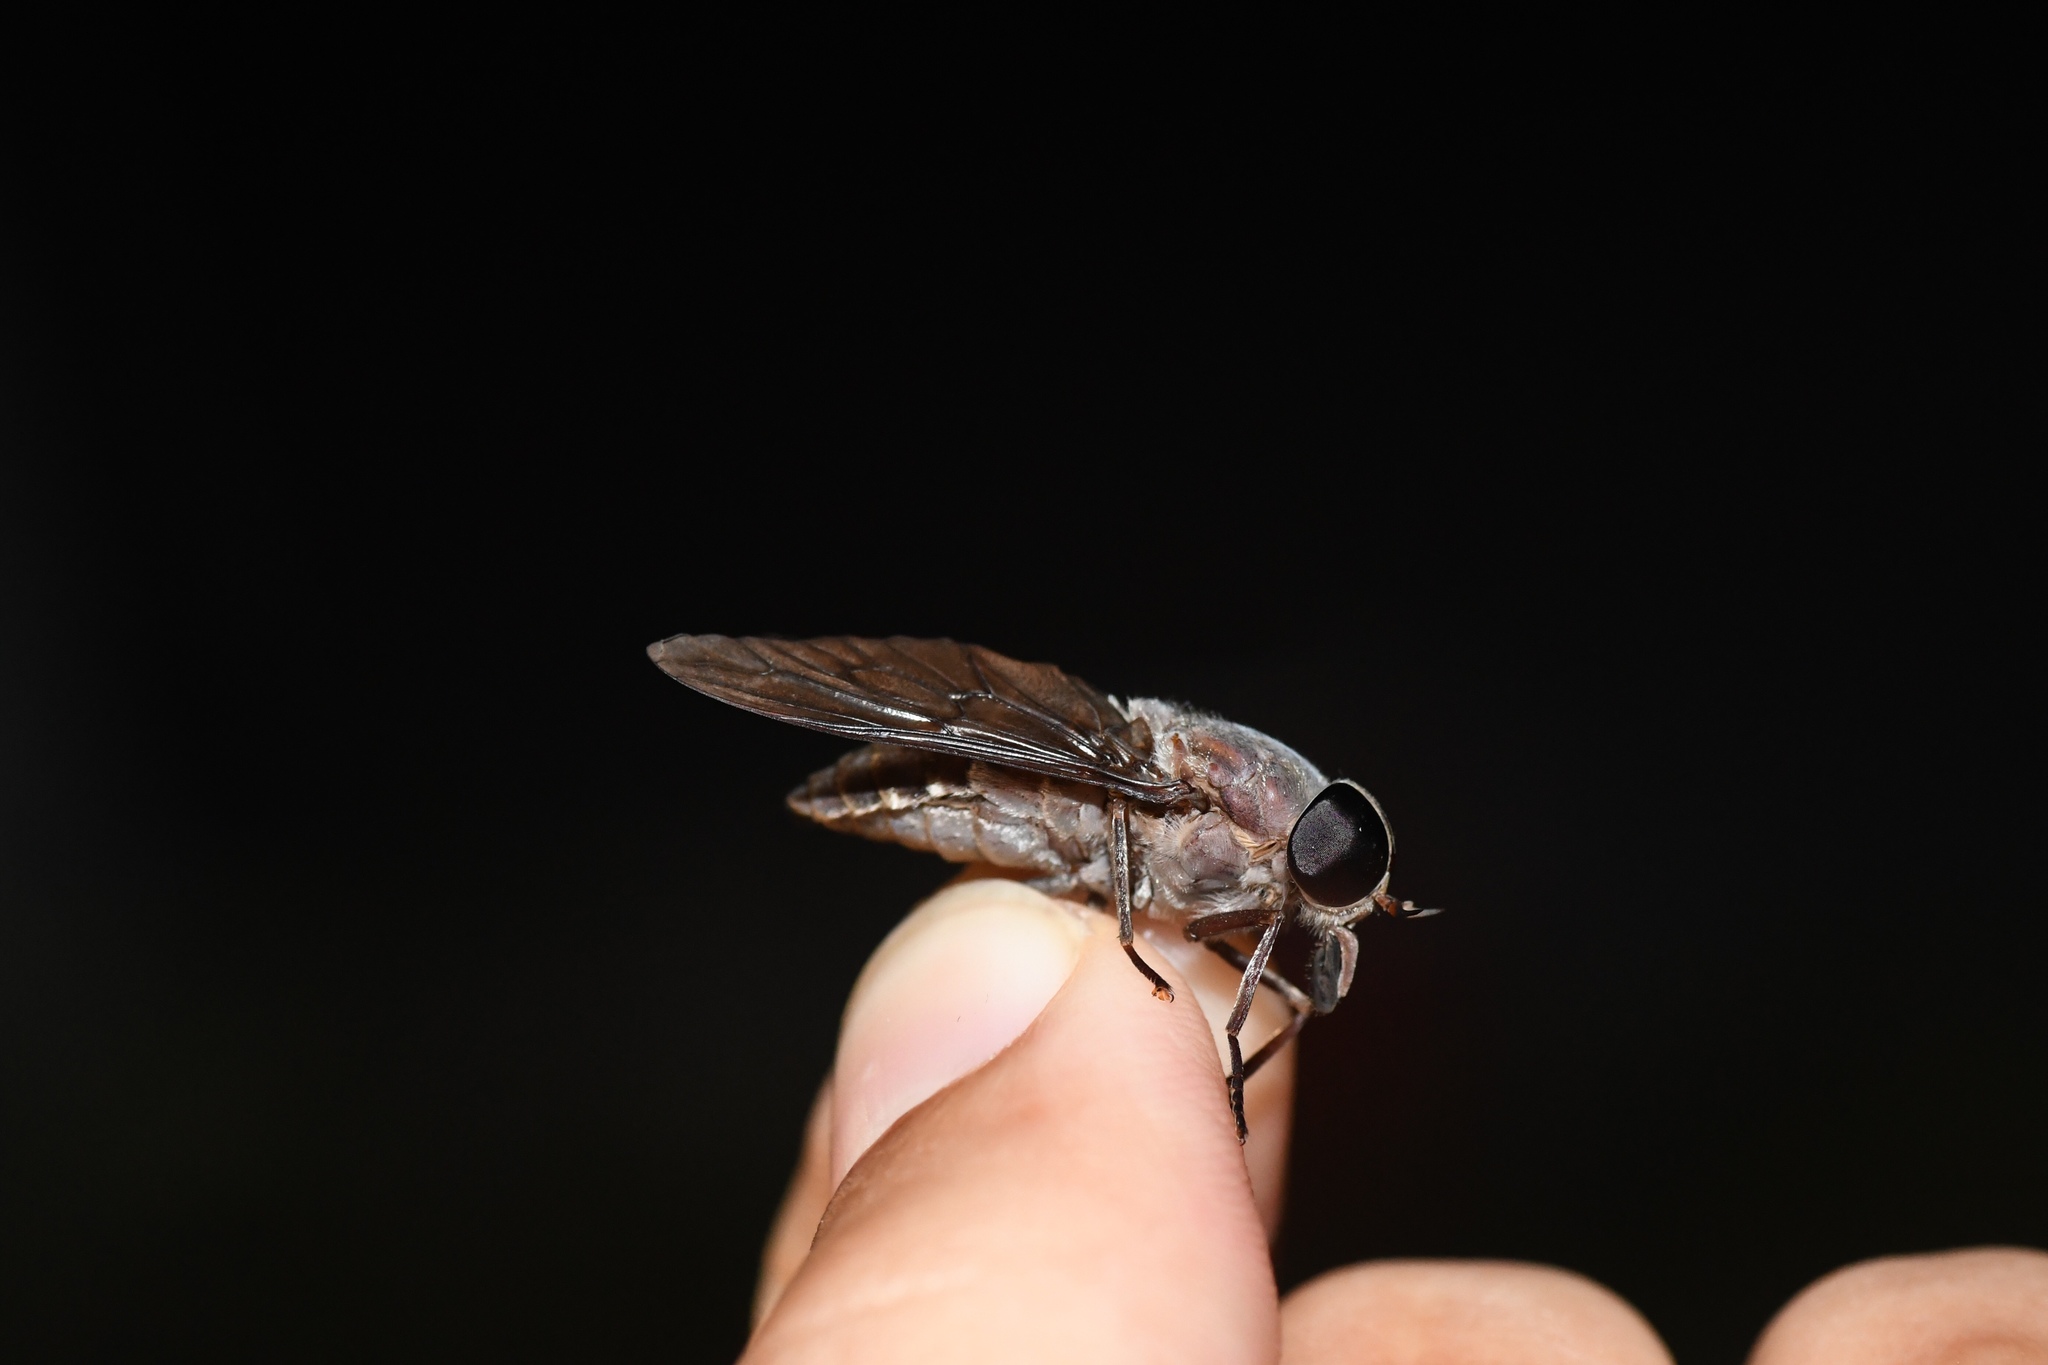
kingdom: Animalia
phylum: Arthropoda
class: Insecta
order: Diptera
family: Tabanidae
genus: Tabanus
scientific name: Tabanus catenatus
